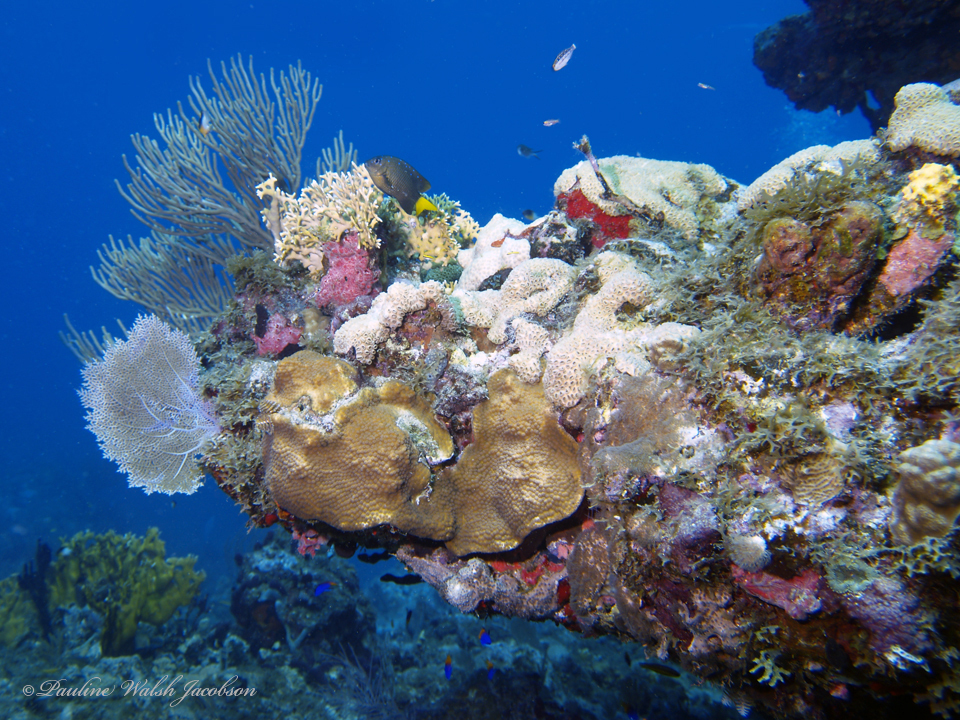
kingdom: Animalia
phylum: Chordata
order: Perciformes
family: Pomacentridae
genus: Microspathodon
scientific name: Microspathodon chrysurus
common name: Yellowtail damselfish
